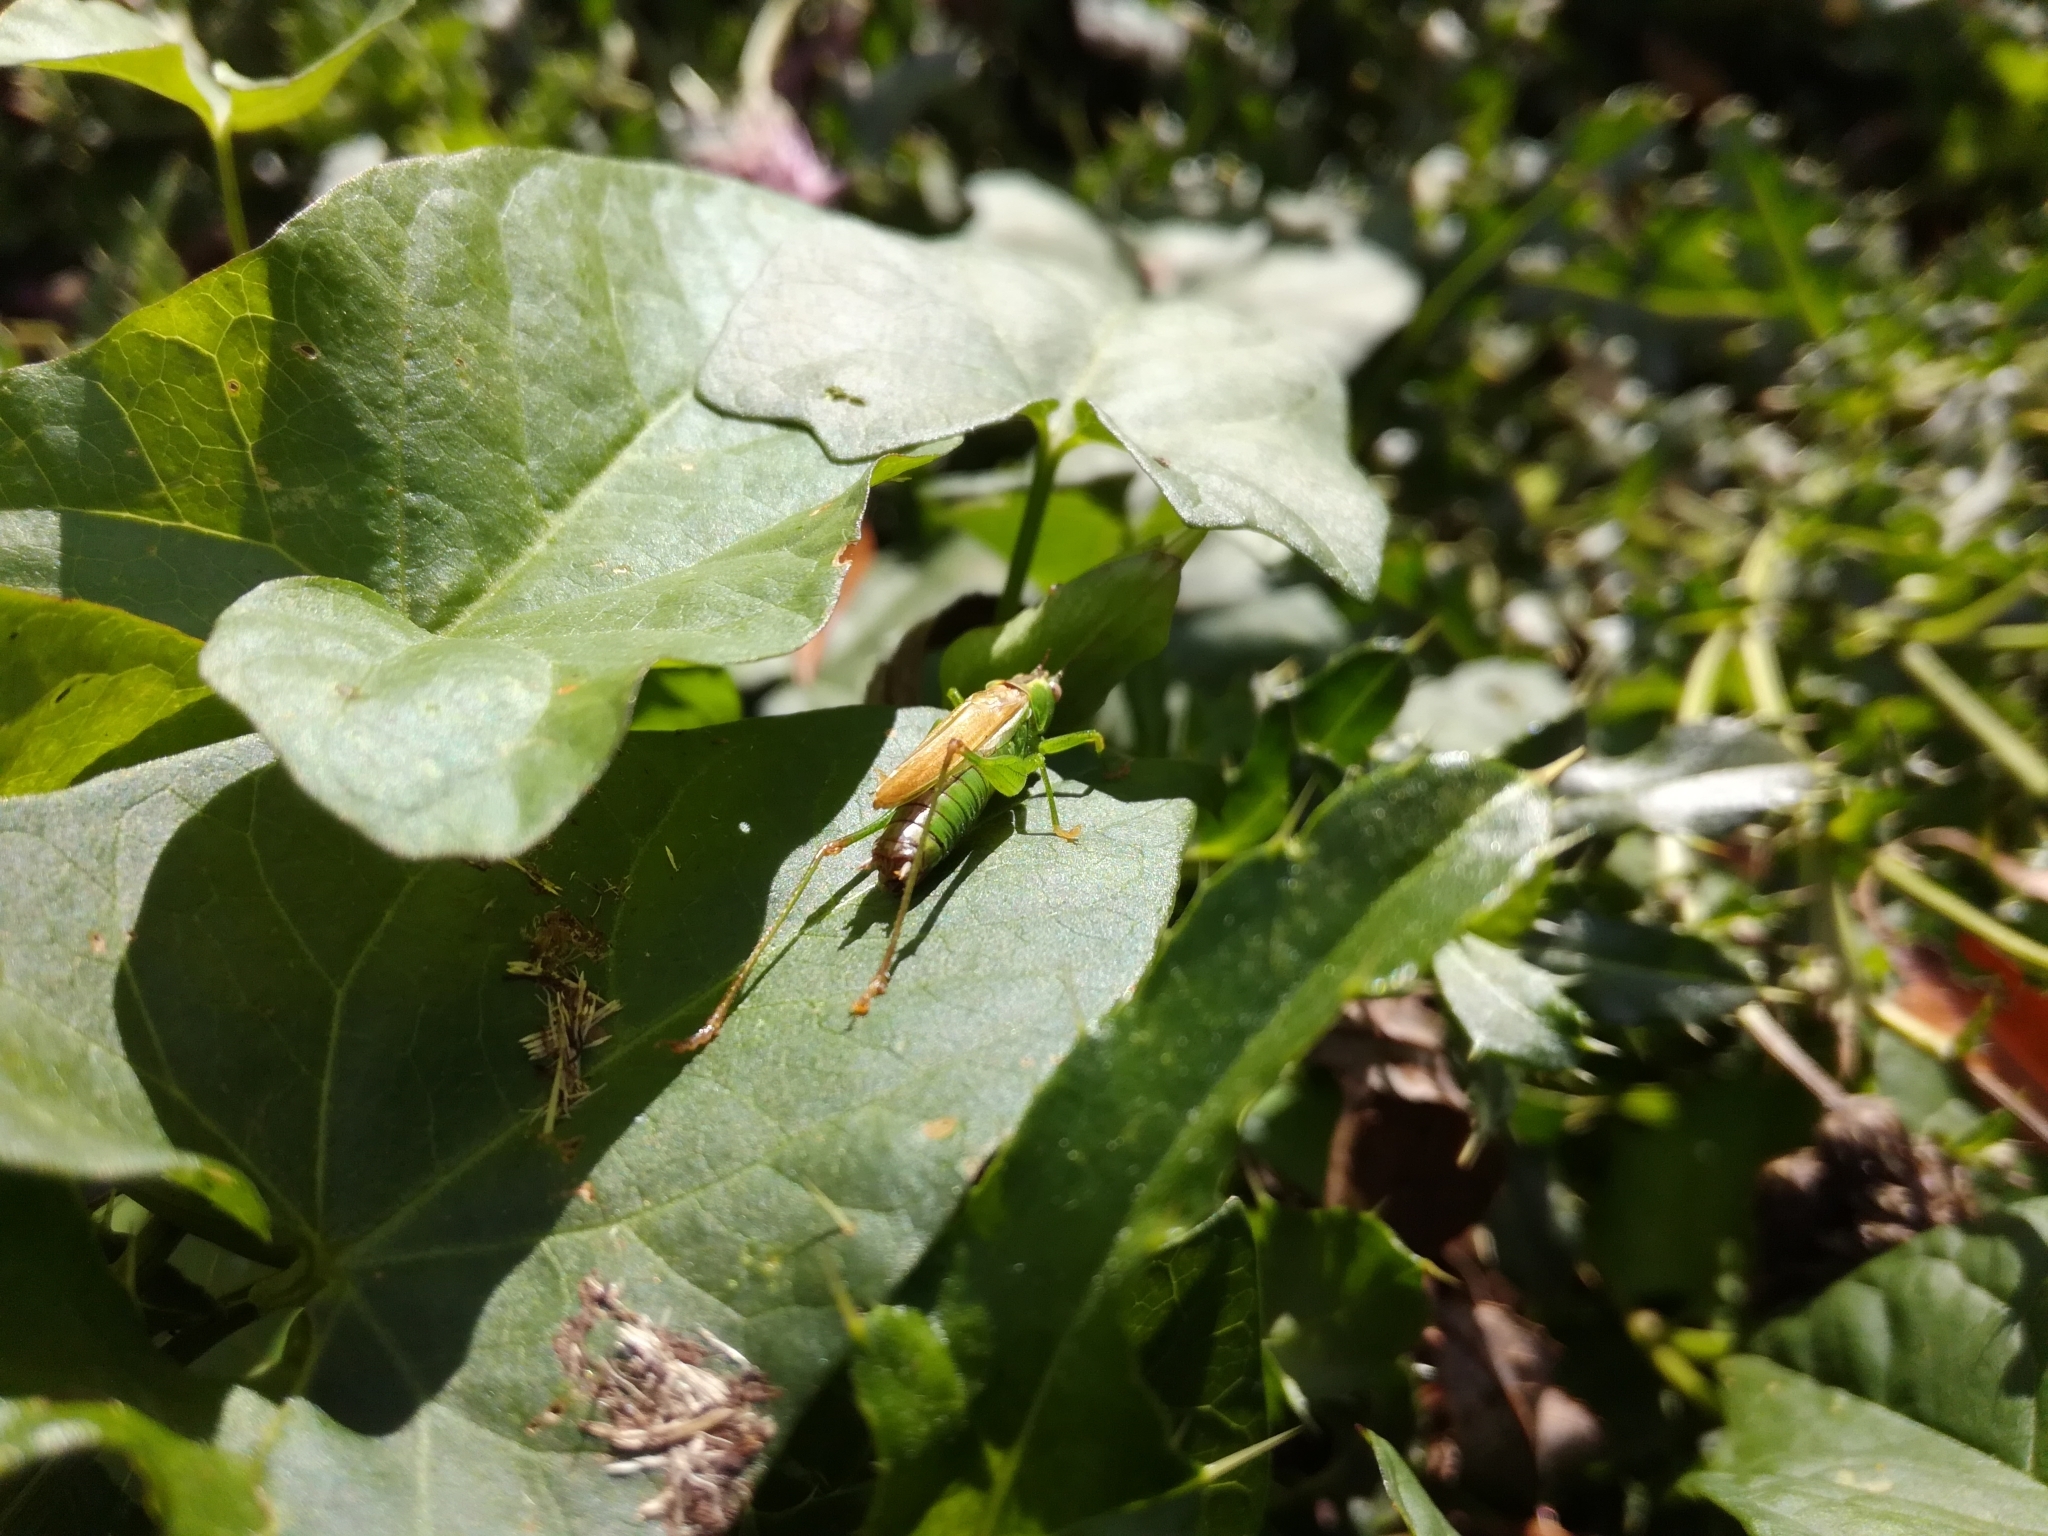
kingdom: Animalia
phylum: Arthropoda
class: Insecta
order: Orthoptera
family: Tettigoniidae
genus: Conocephalus
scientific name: Conocephalus fuscus
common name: Long-winged conehead
